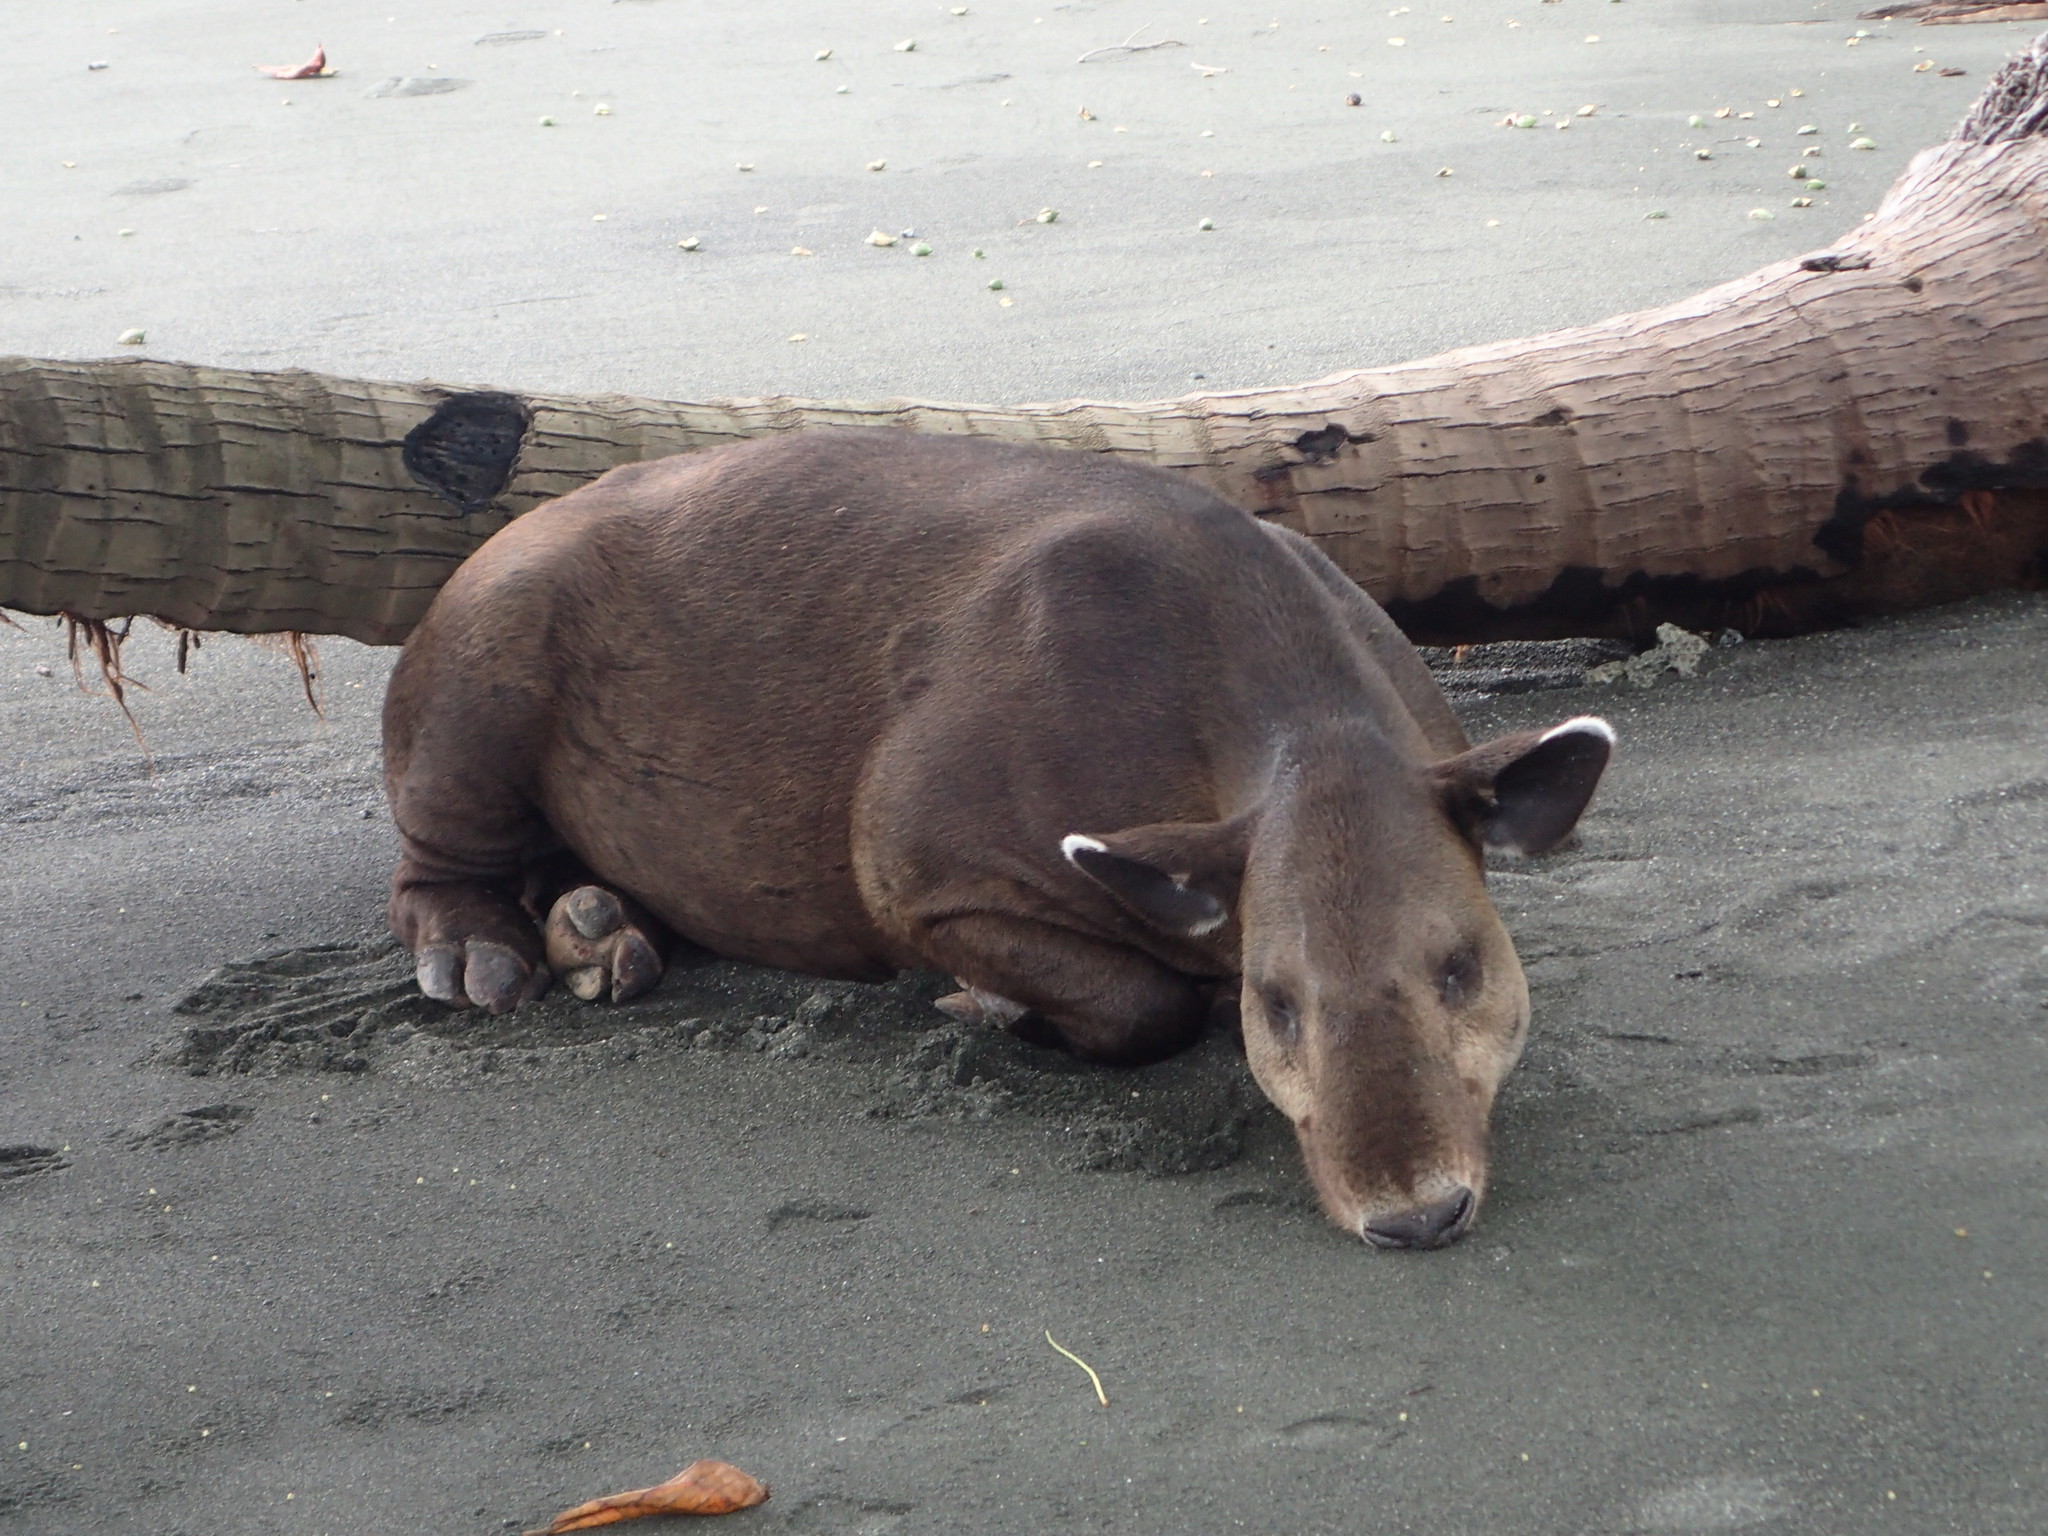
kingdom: Animalia
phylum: Chordata
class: Mammalia
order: Perissodactyla
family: Tapiridae
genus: Tapirella
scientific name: Tapirella bairdii
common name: Baird's tapir
